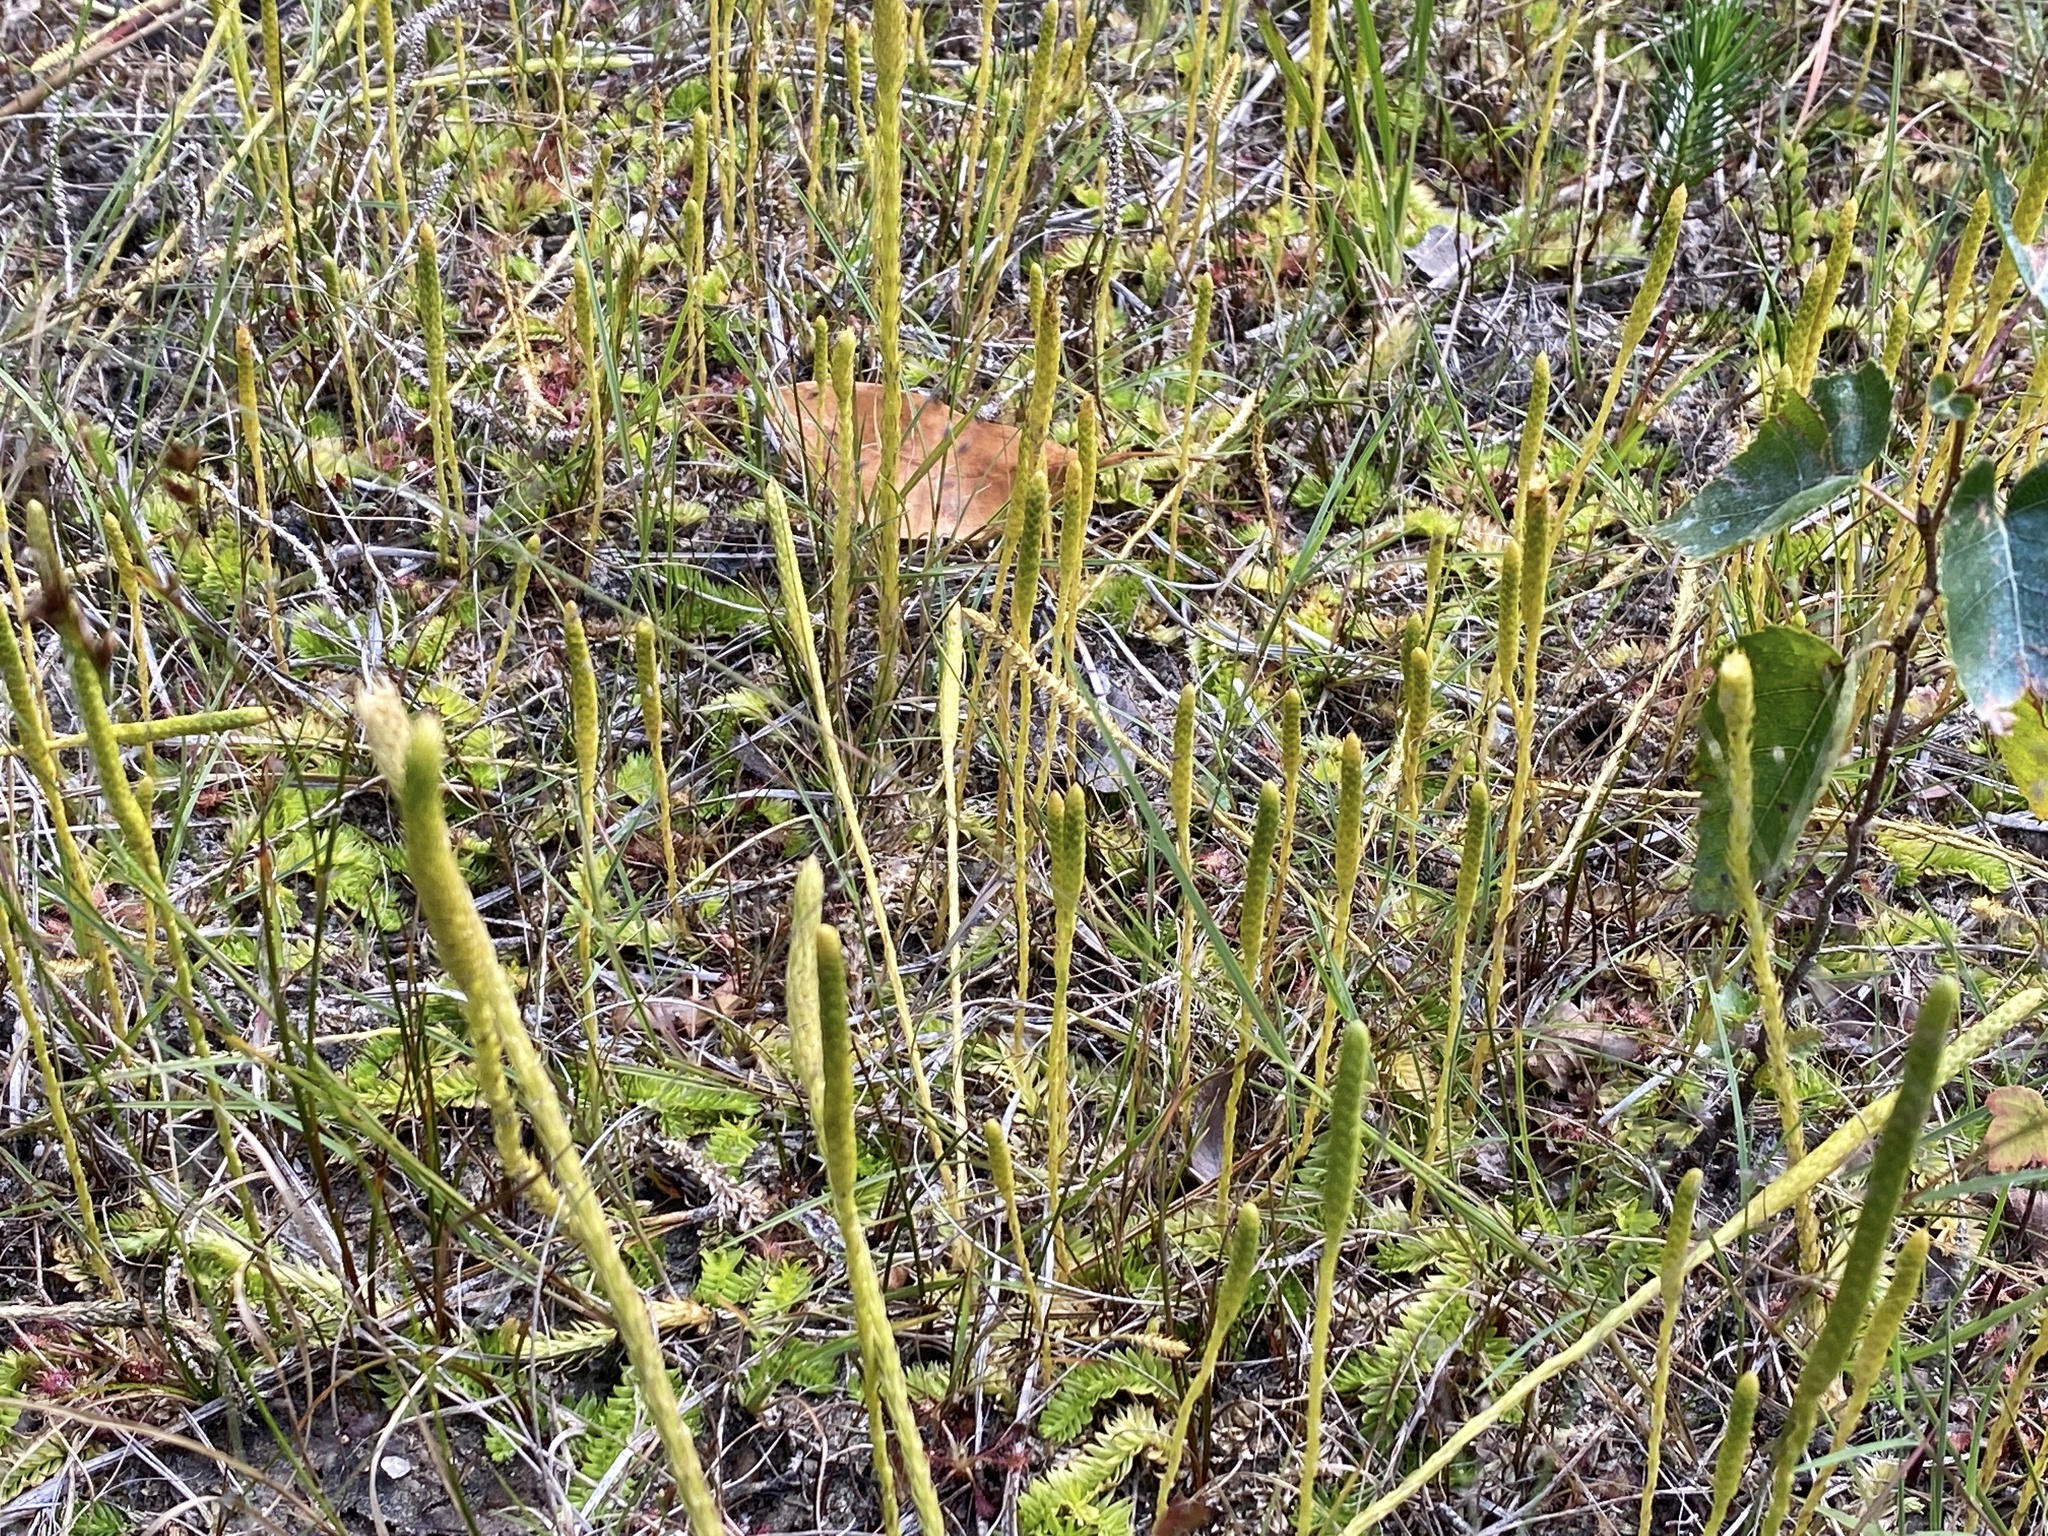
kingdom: Plantae
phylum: Tracheophyta
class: Lycopodiopsida
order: Lycopodiales
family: Lycopodiaceae
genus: Pseudolycopodiella
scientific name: Pseudolycopodiella caroliniana
